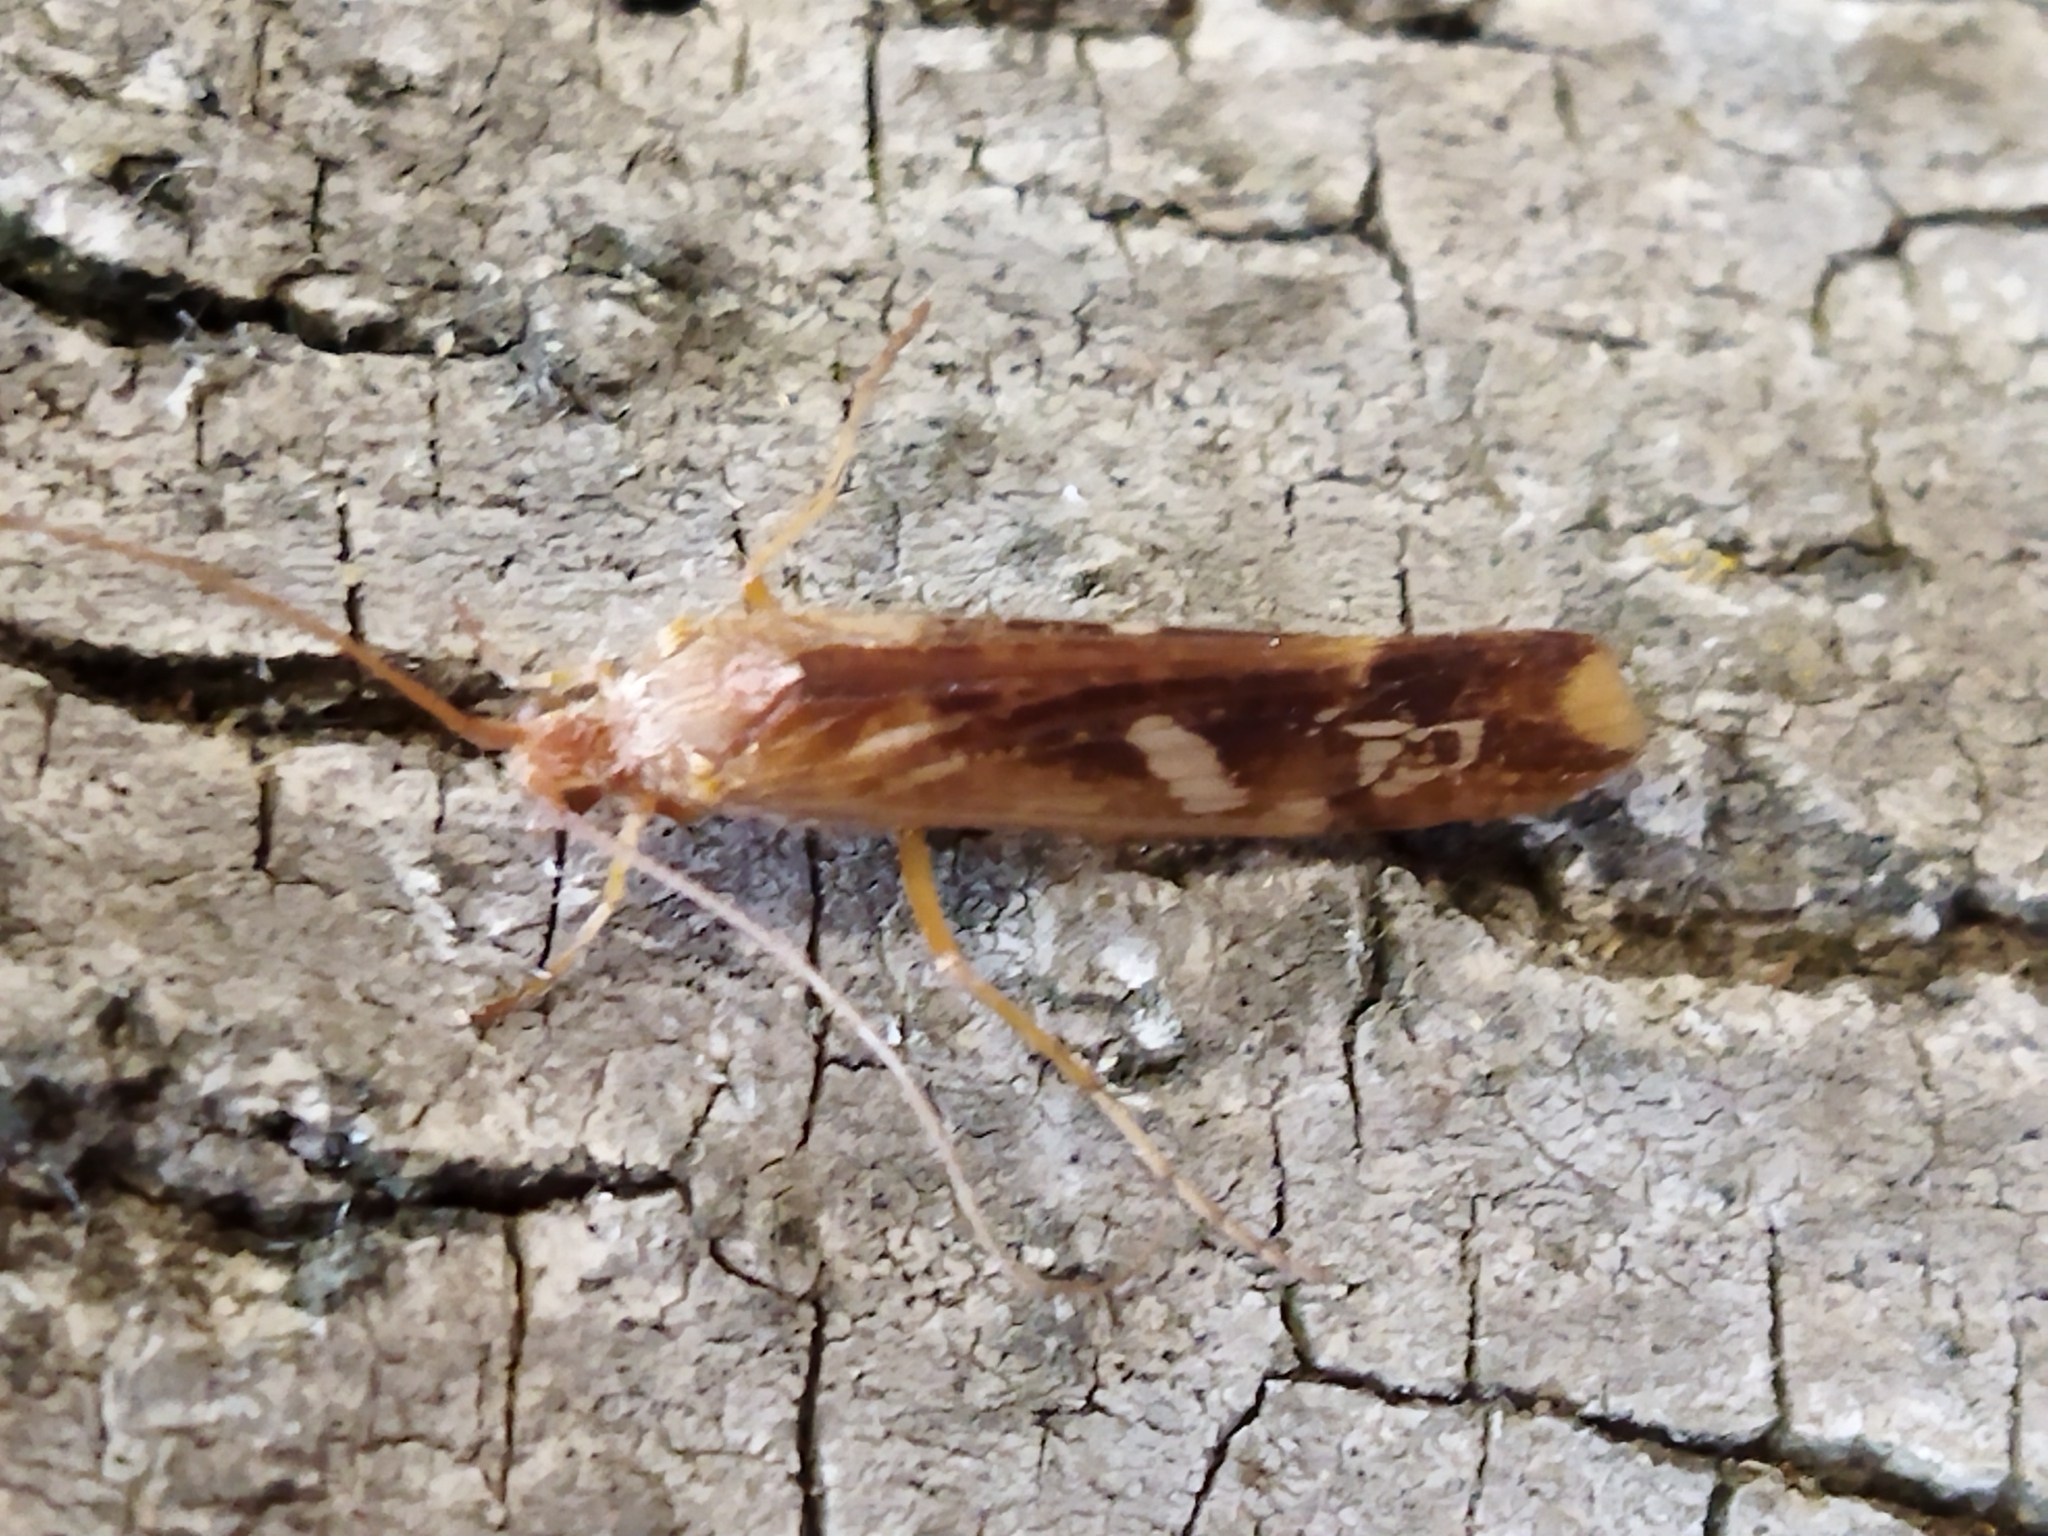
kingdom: Animalia
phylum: Arthropoda
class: Insecta
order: Trichoptera
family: Limnephilidae
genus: Limnephilus
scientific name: Limnephilus lunatus
